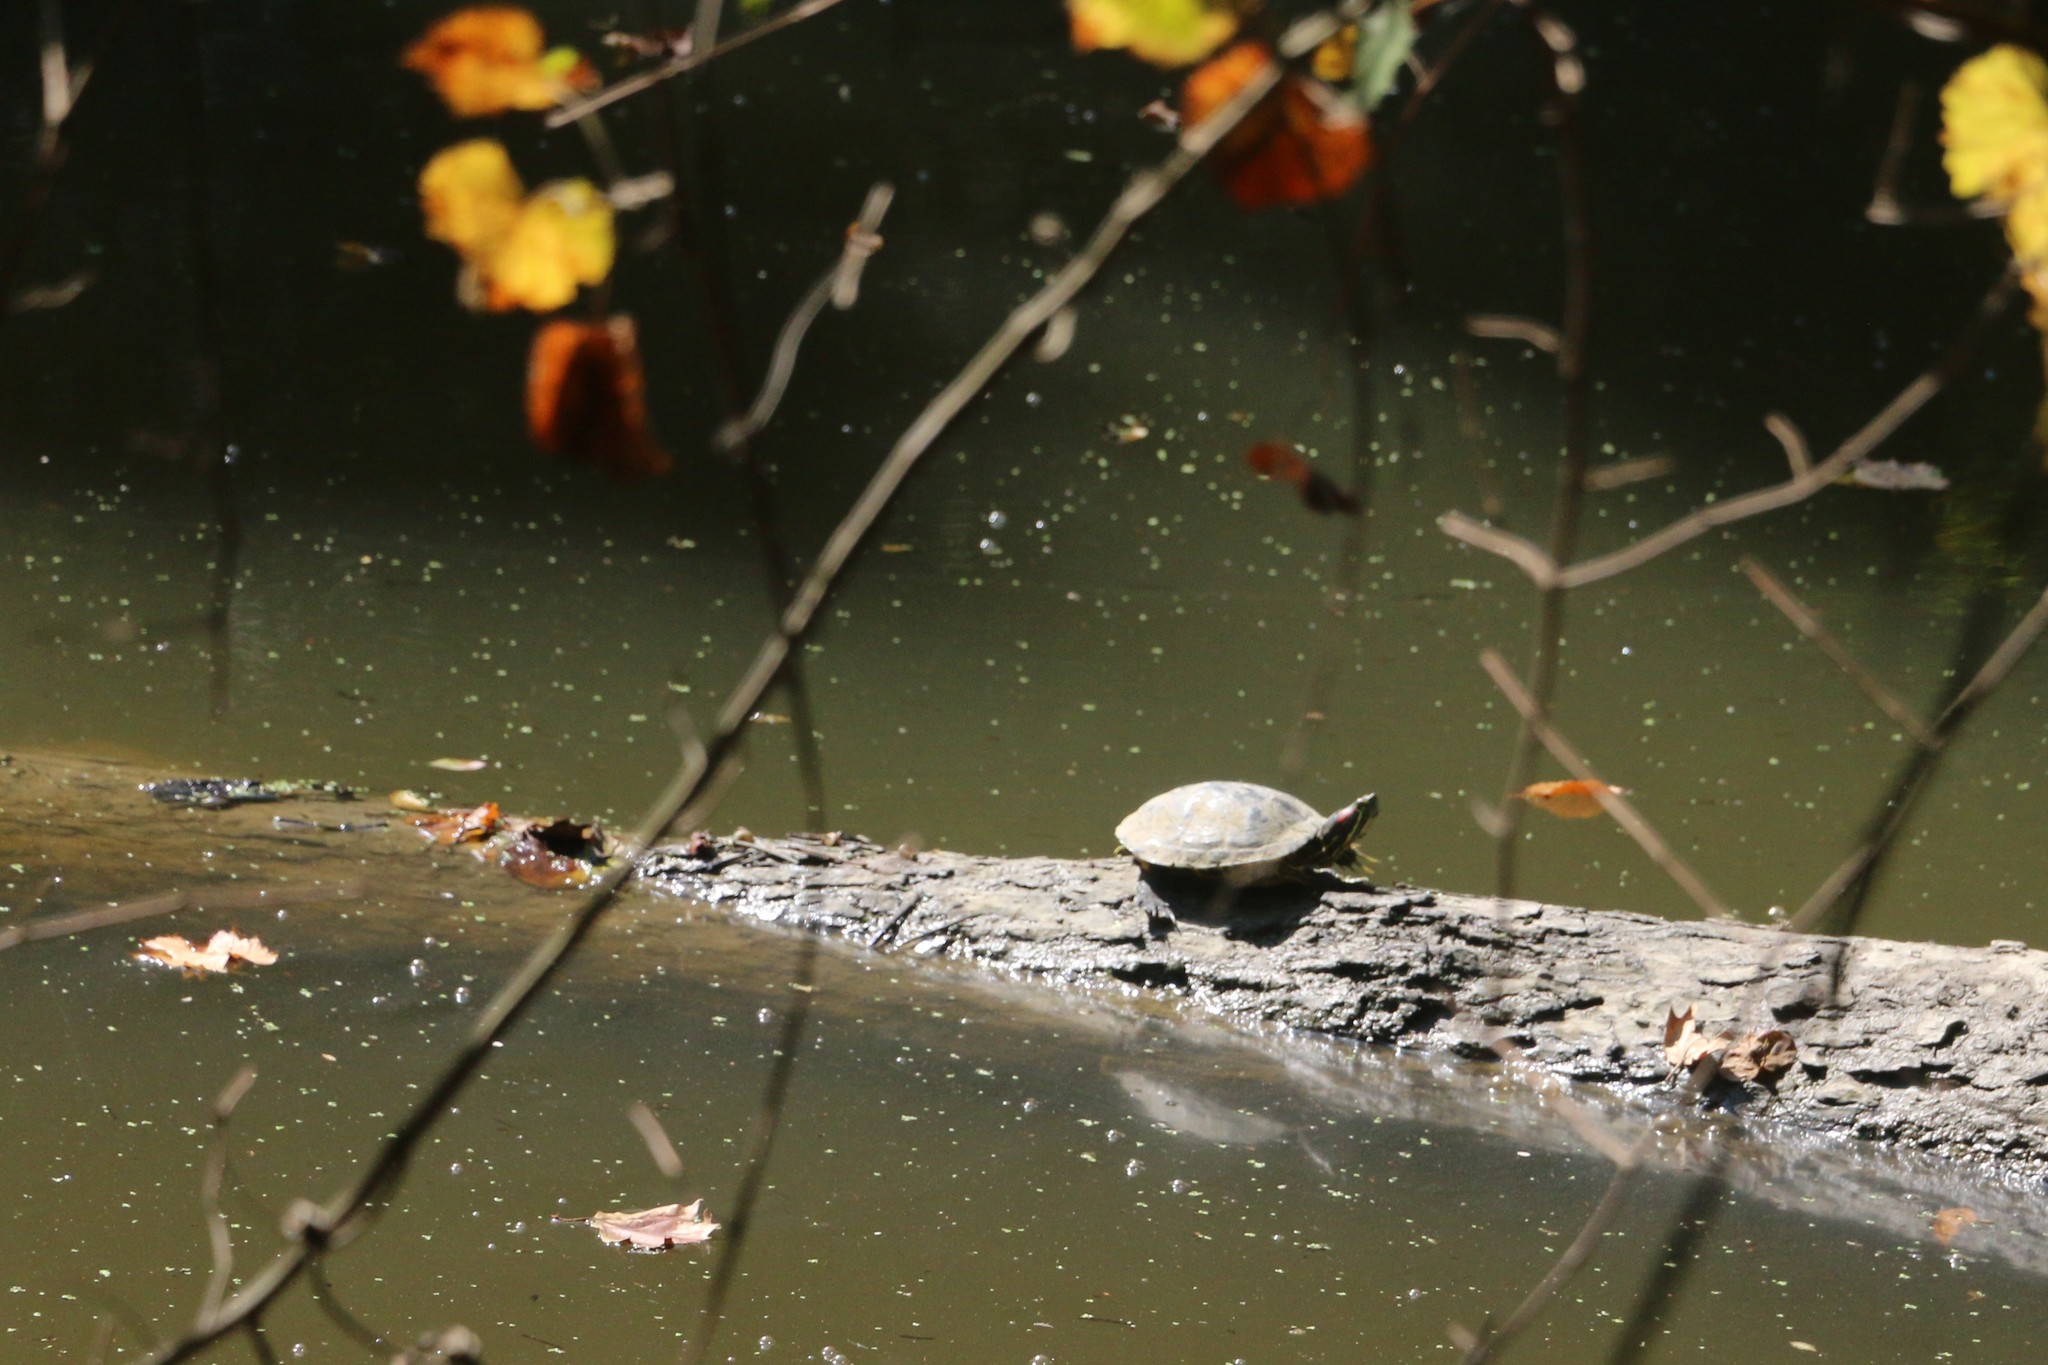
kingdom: Animalia
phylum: Chordata
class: Testudines
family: Emydidae
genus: Trachemys
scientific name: Trachemys scripta
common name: Slider
